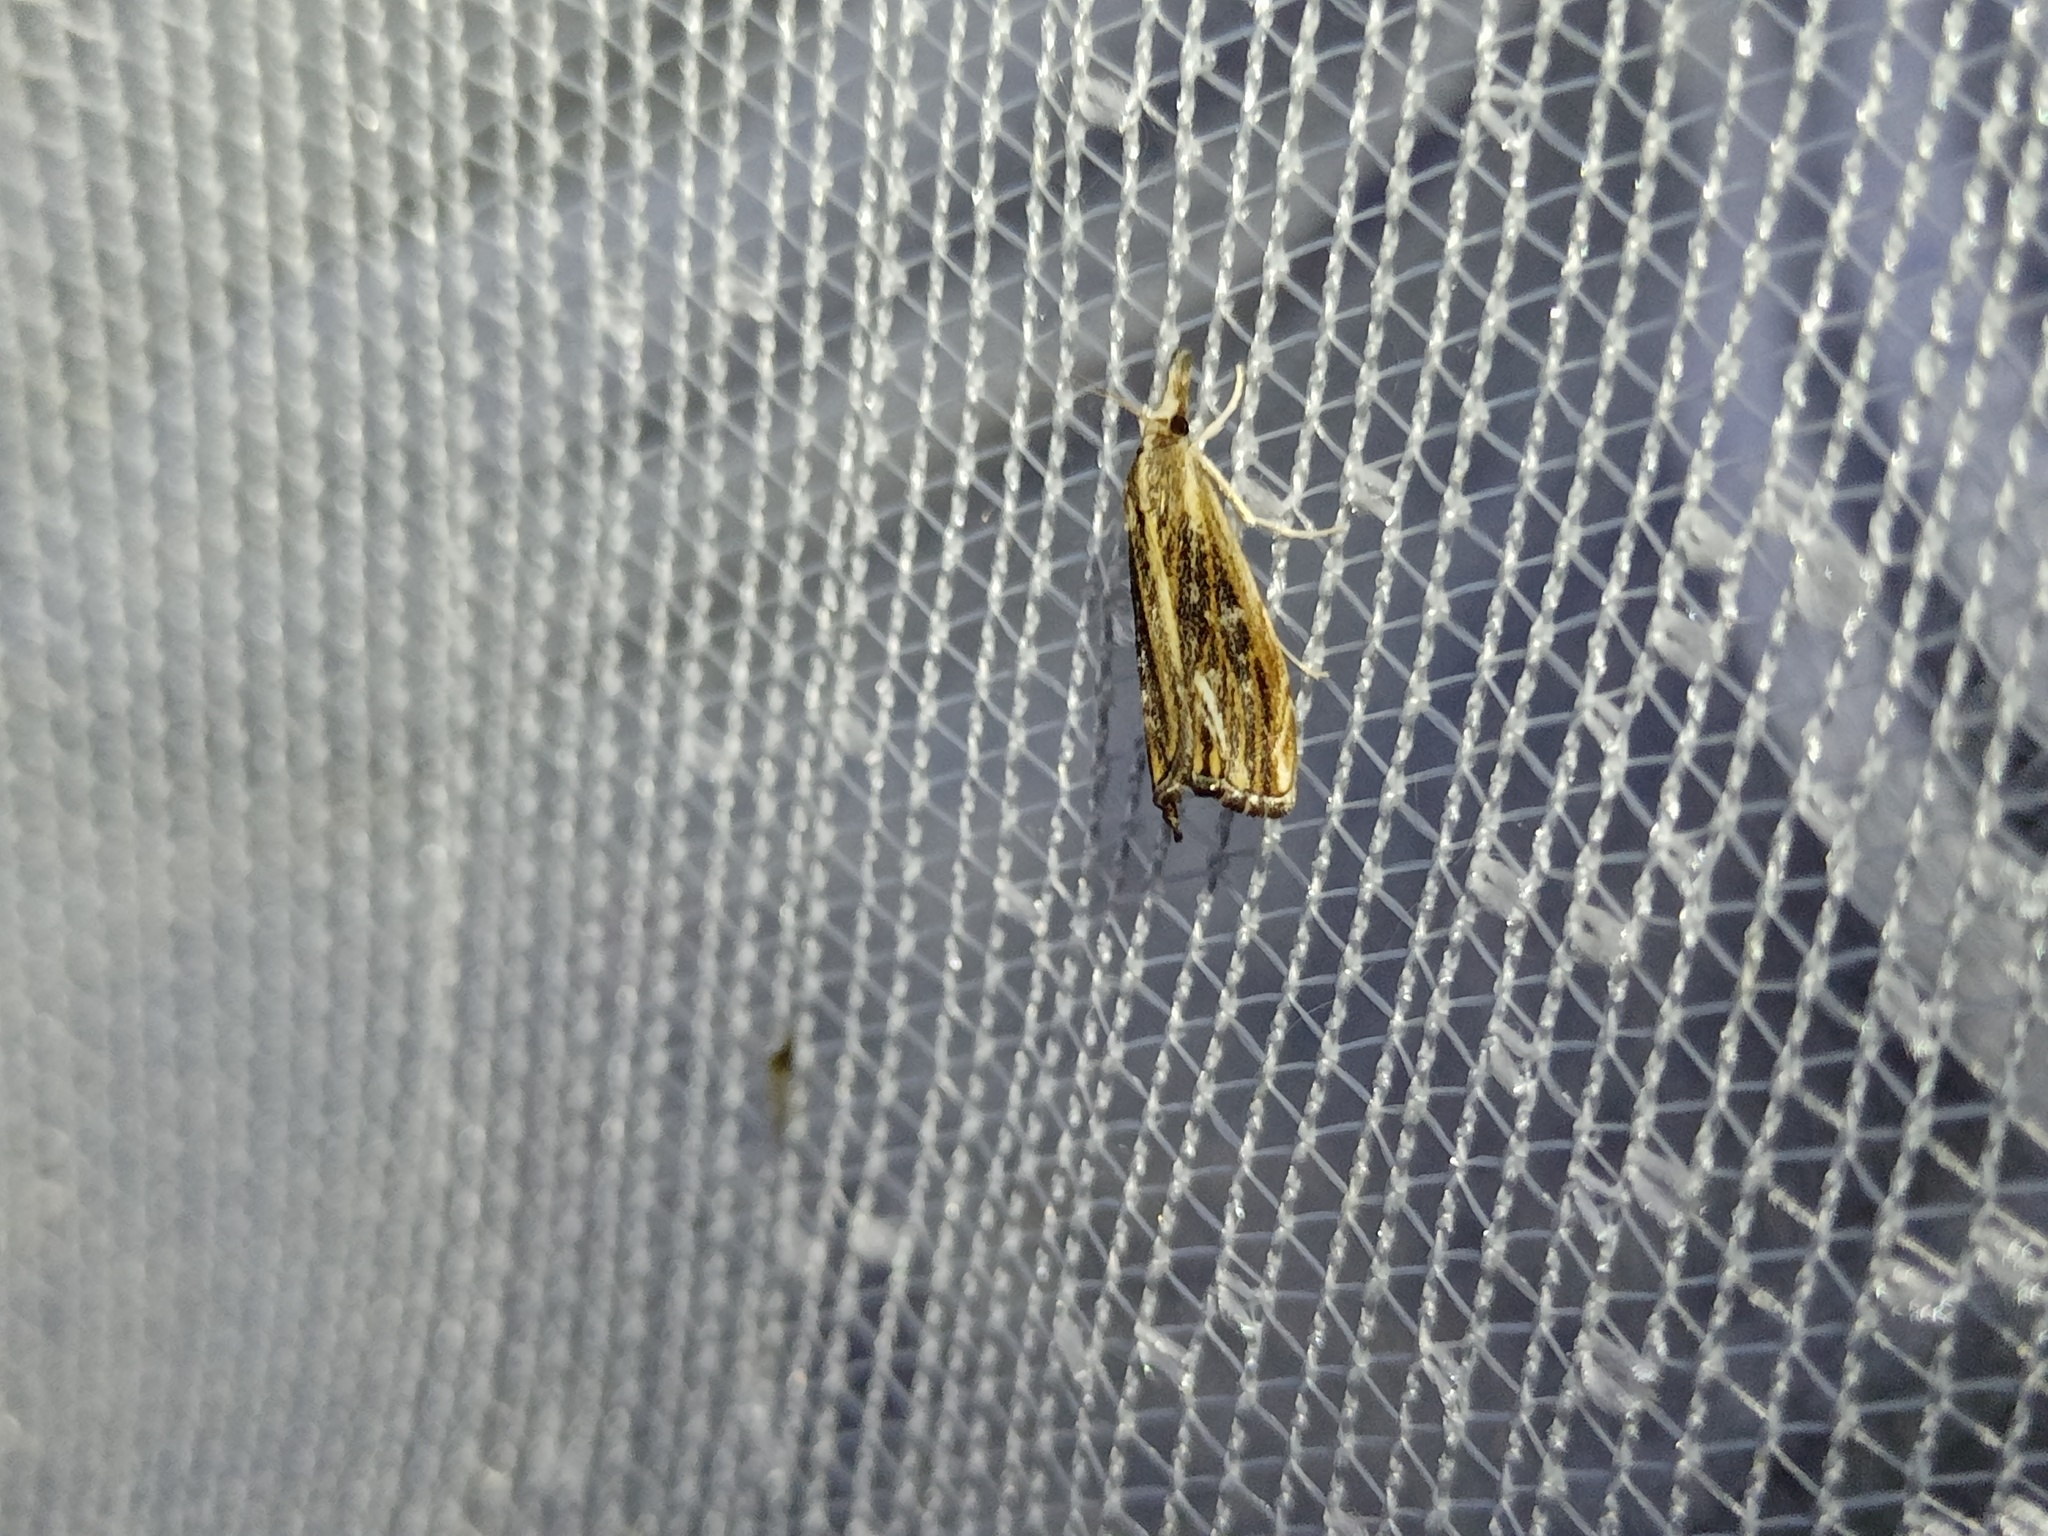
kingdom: Animalia
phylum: Arthropoda
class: Insecta
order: Lepidoptera
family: Crambidae
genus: Catoptria
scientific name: Catoptria verellus
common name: Marbled grass-veneer
